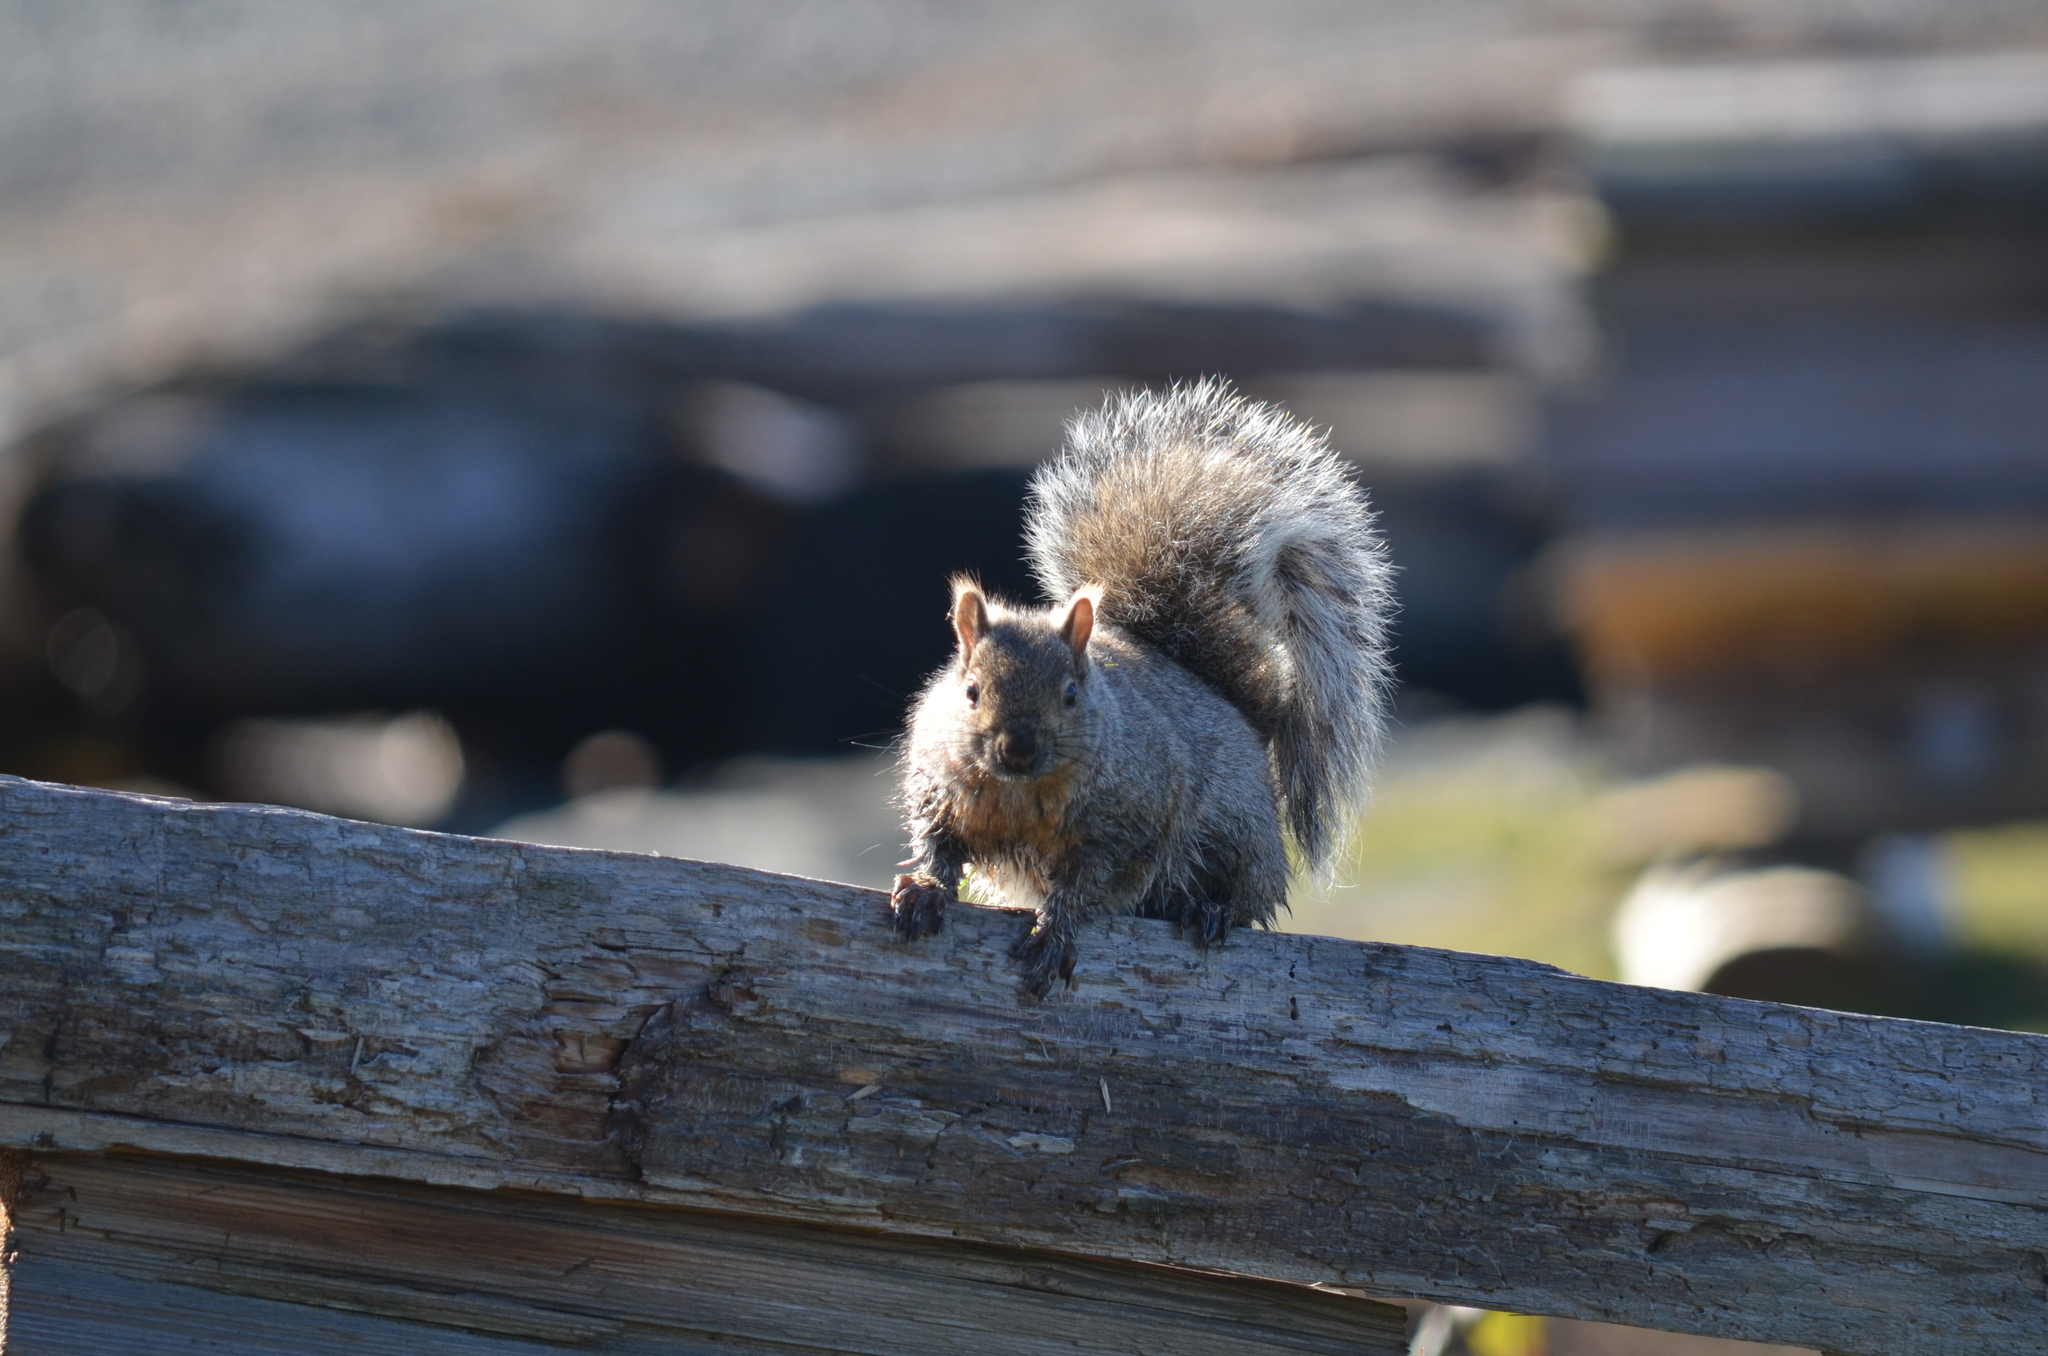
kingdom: Animalia
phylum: Chordata
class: Mammalia
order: Rodentia
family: Sciuridae
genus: Sciurus
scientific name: Sciurus carolinensis
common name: Eastern gray squirrel
